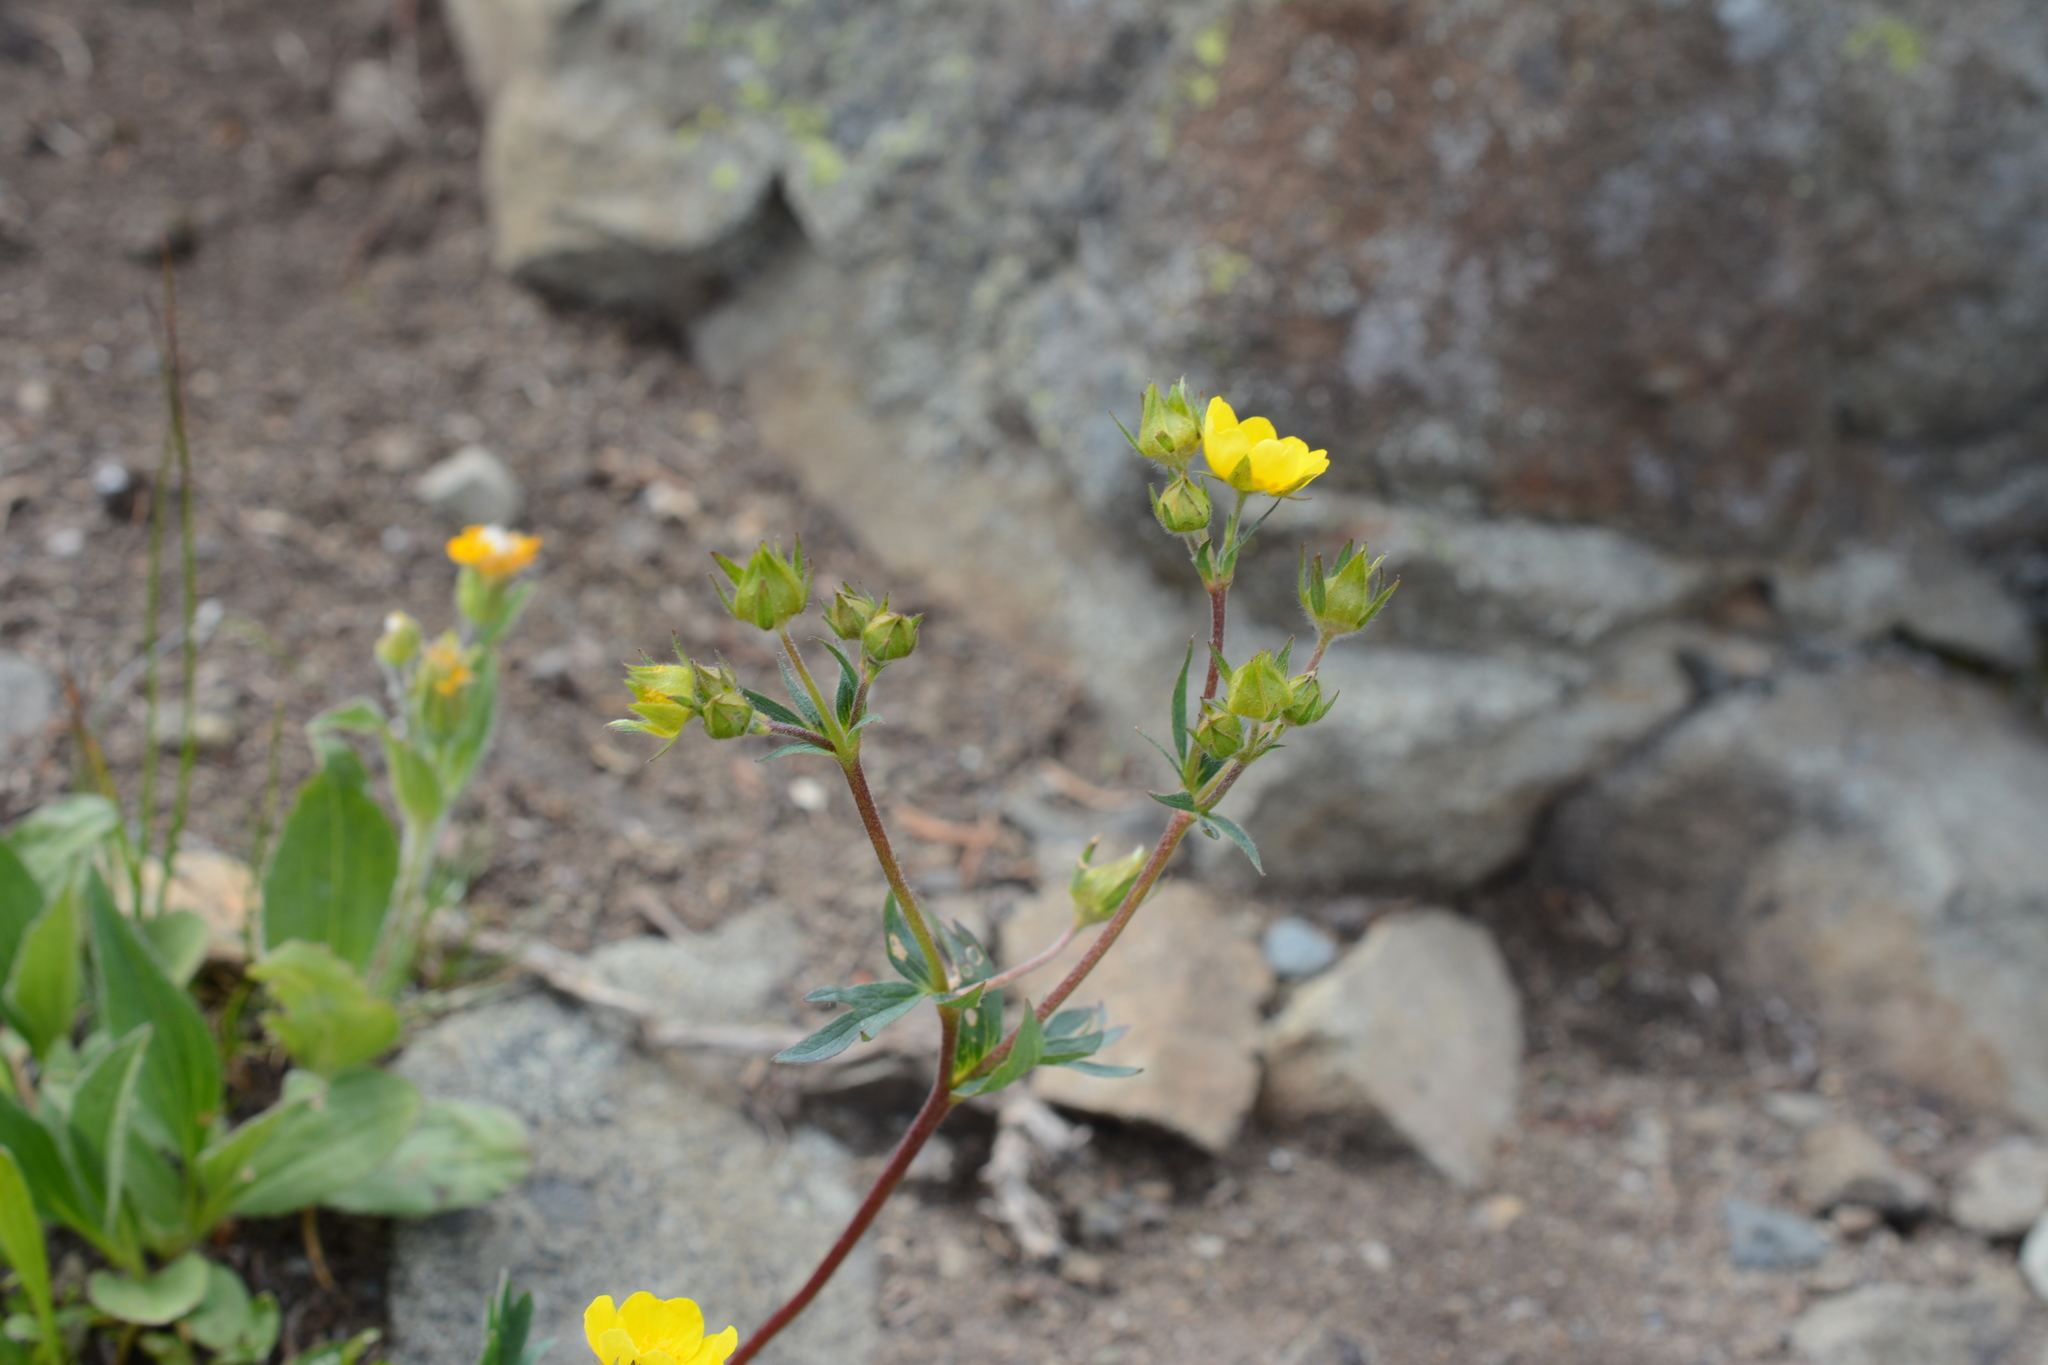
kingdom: Plantae
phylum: Tracheophyta
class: Magnoliopsida
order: Rosales
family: Rosaceae
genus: Potentilla
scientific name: Potentilla glaucophylla
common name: Blue-leaved cinquefoil
